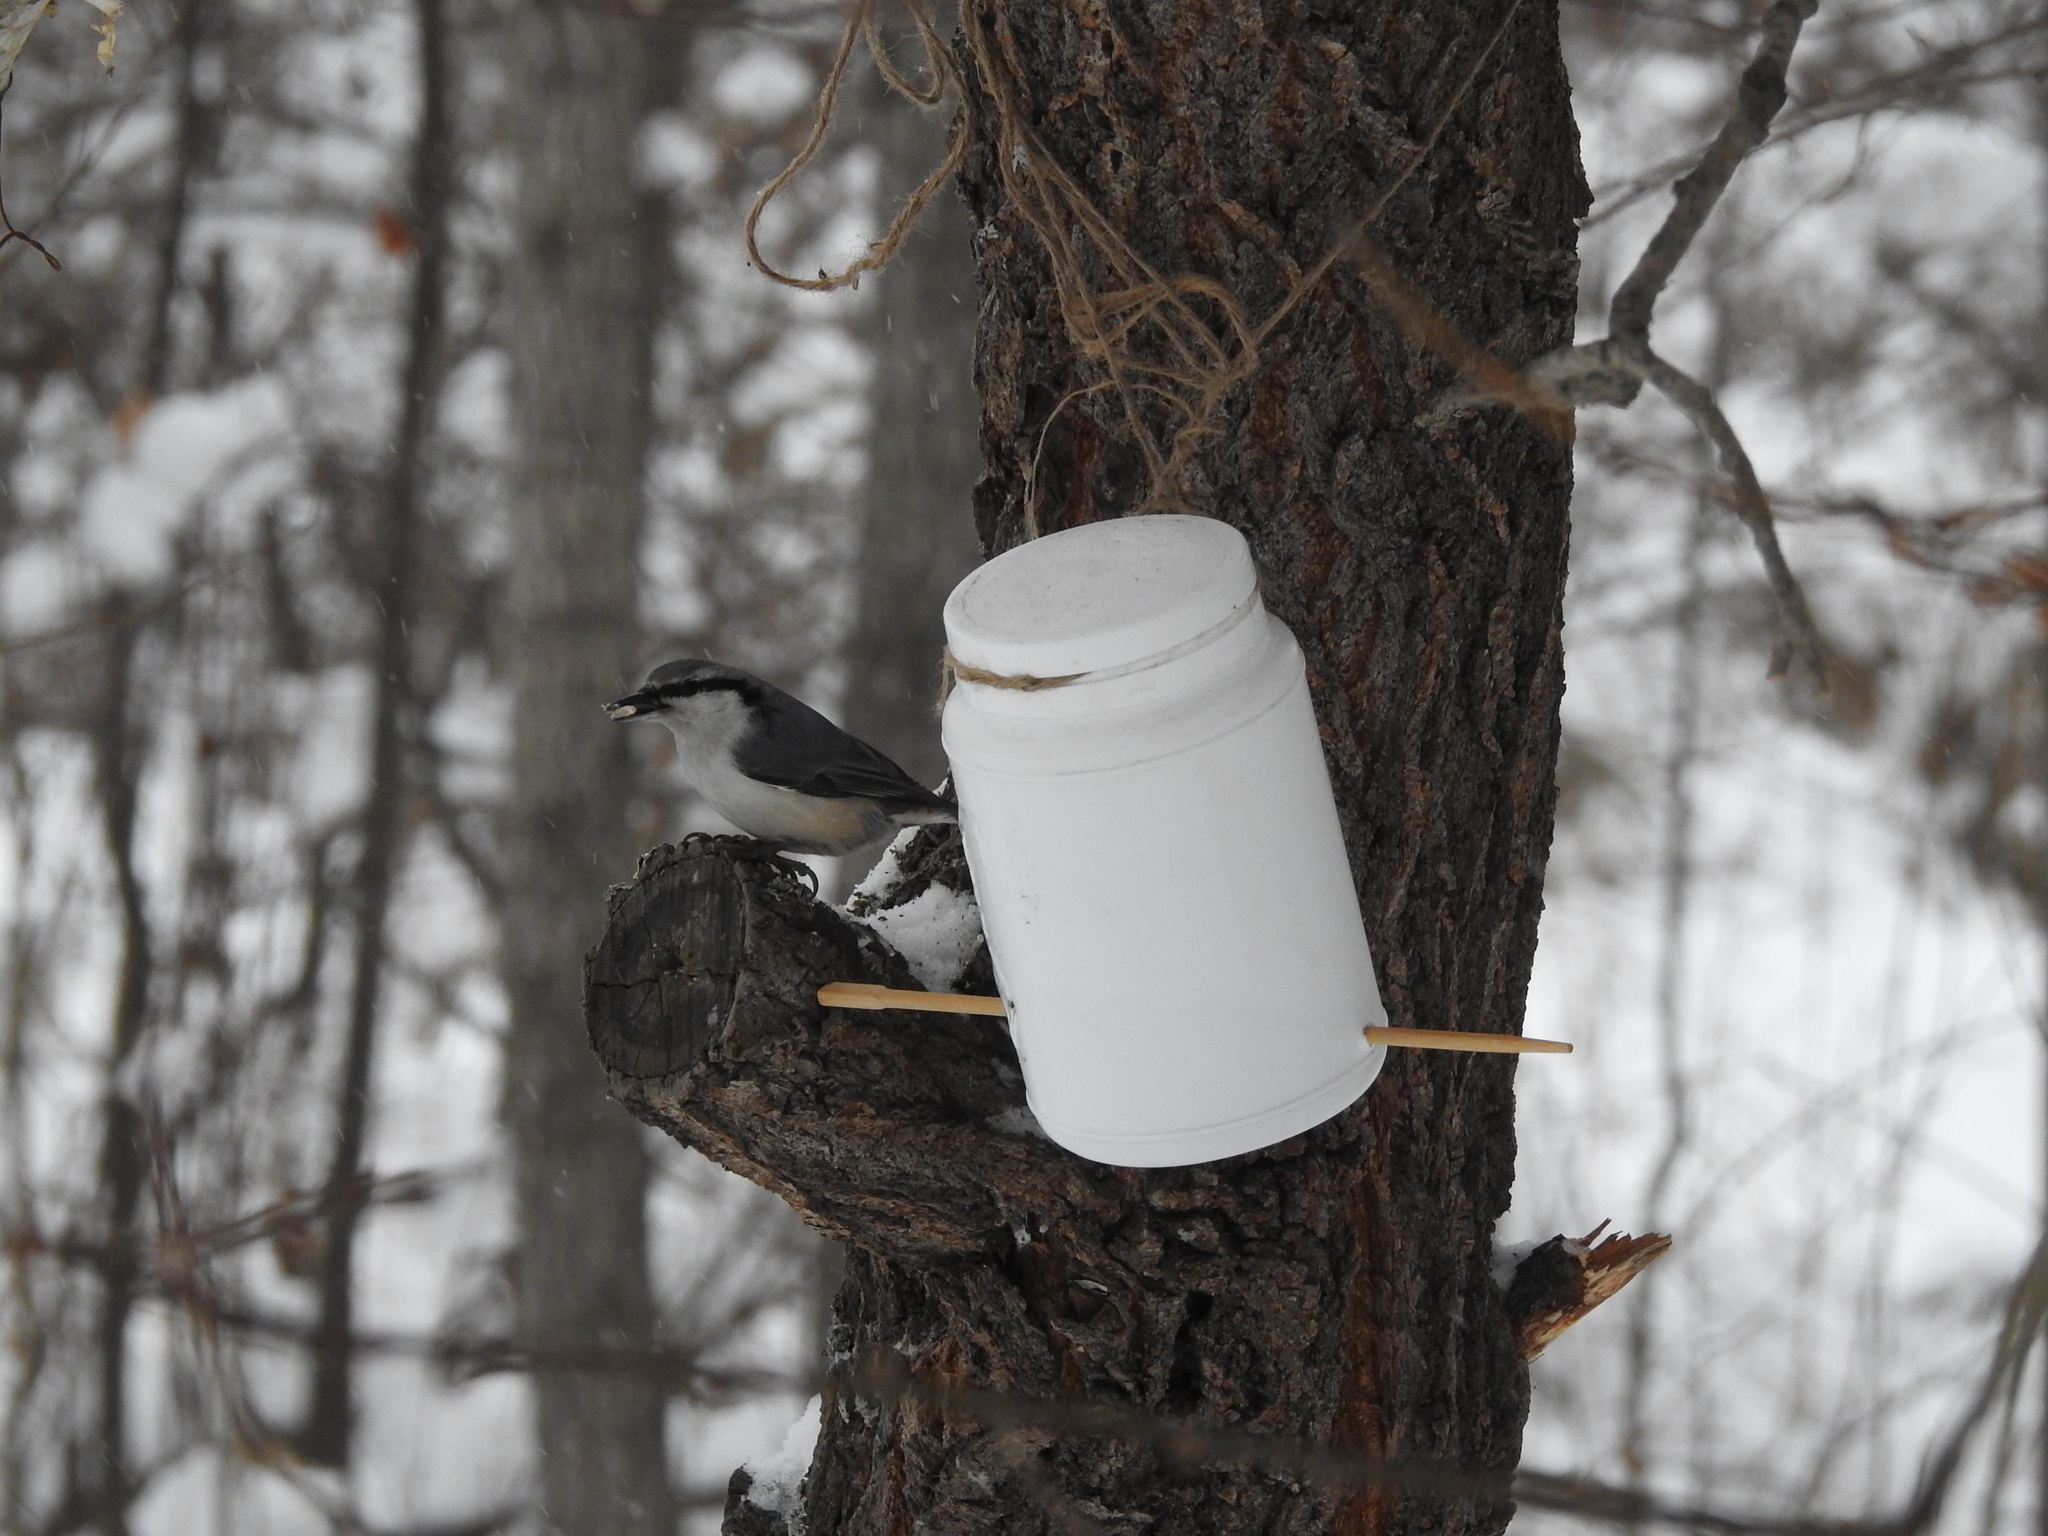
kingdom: Animalia
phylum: Chordata
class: Aves
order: Passeriformes
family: Sittidae
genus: Sitta
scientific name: Sitta europaea
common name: Eurasian nuthatch
